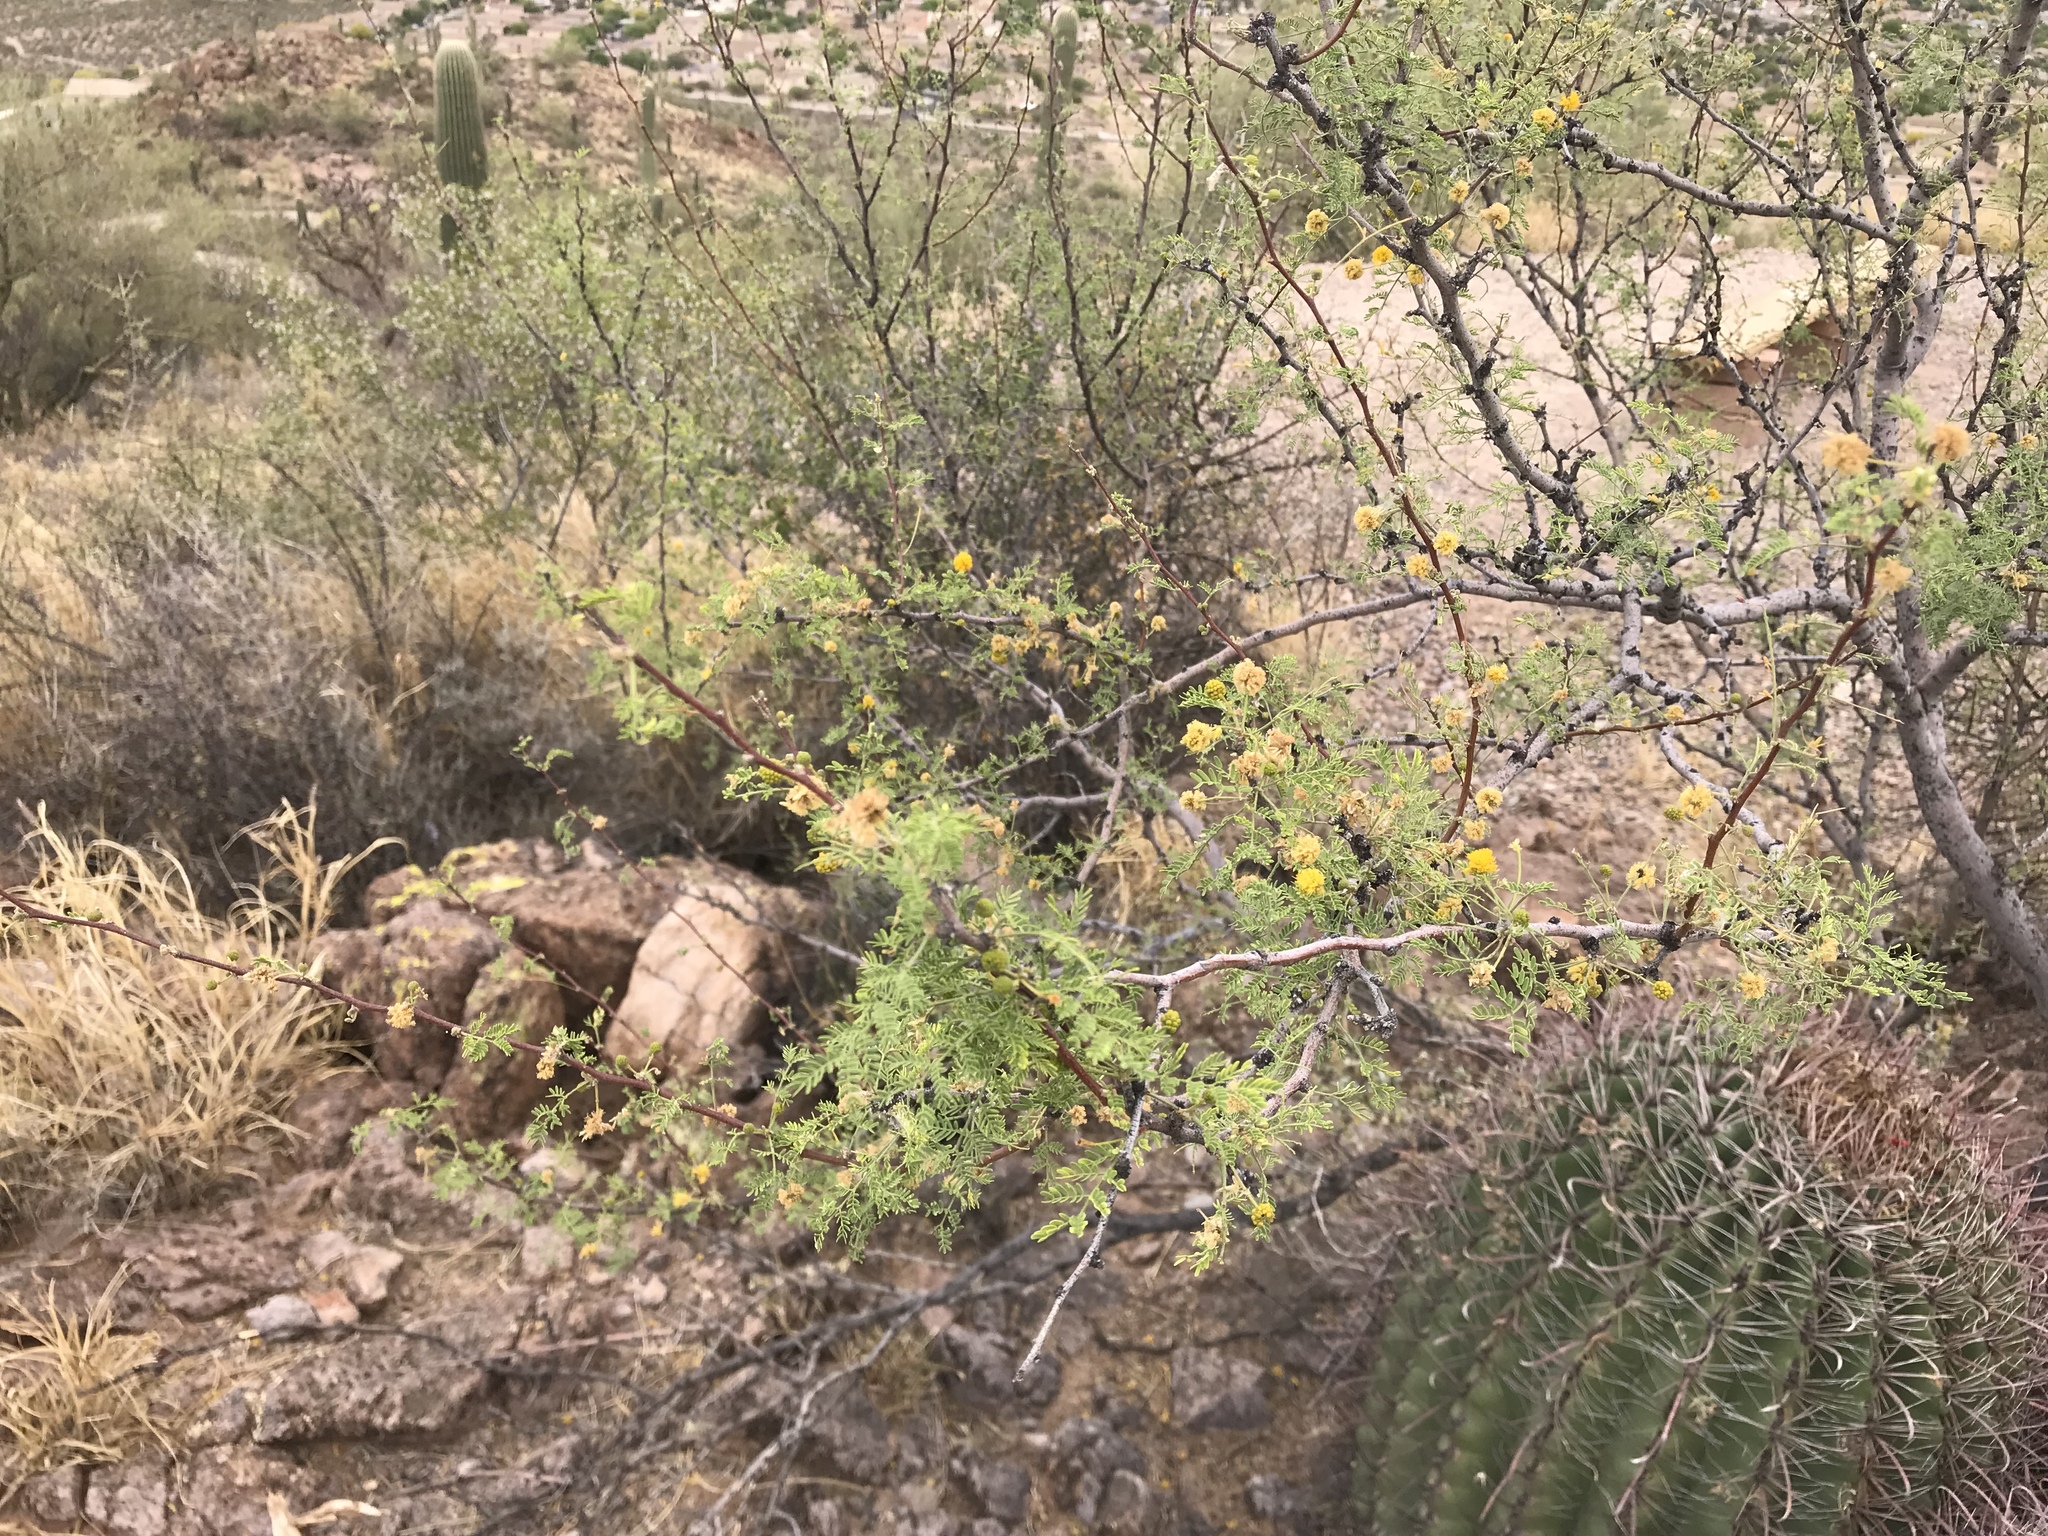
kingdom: Plantae
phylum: Tracheophyta
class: Magnoliopsida
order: Fabales
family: Fabaceae
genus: Vachellia
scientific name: Vachellia constricta
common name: Mescat acacia
